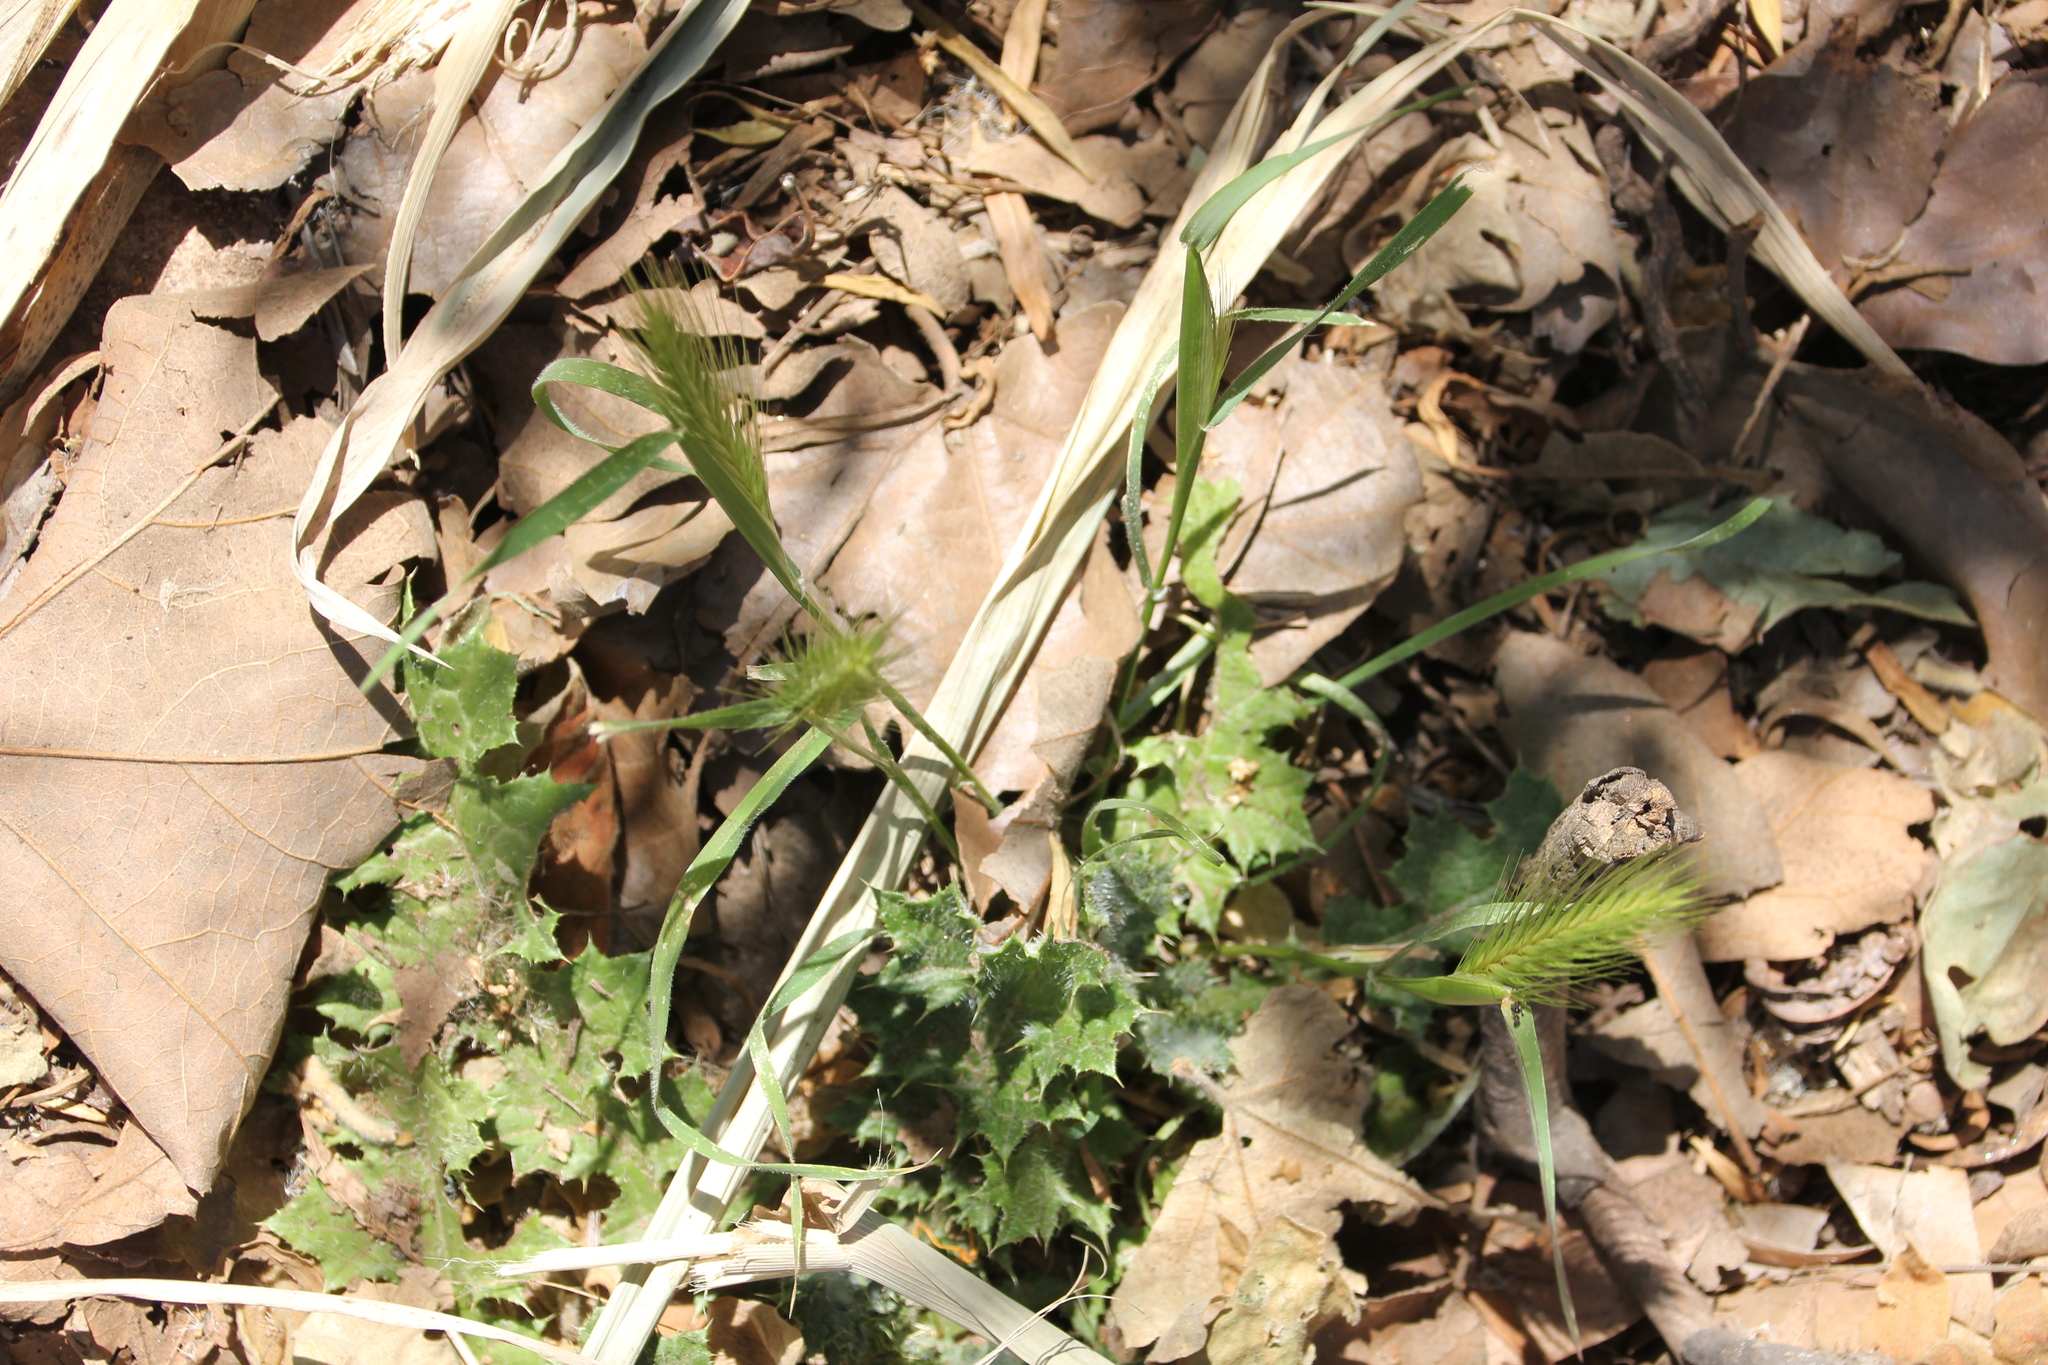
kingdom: Plantae
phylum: Tracheophyta
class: Liliopsida
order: Poales
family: Poaceae
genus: Hordeum
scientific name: Hordeum murinum
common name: Wall barley
